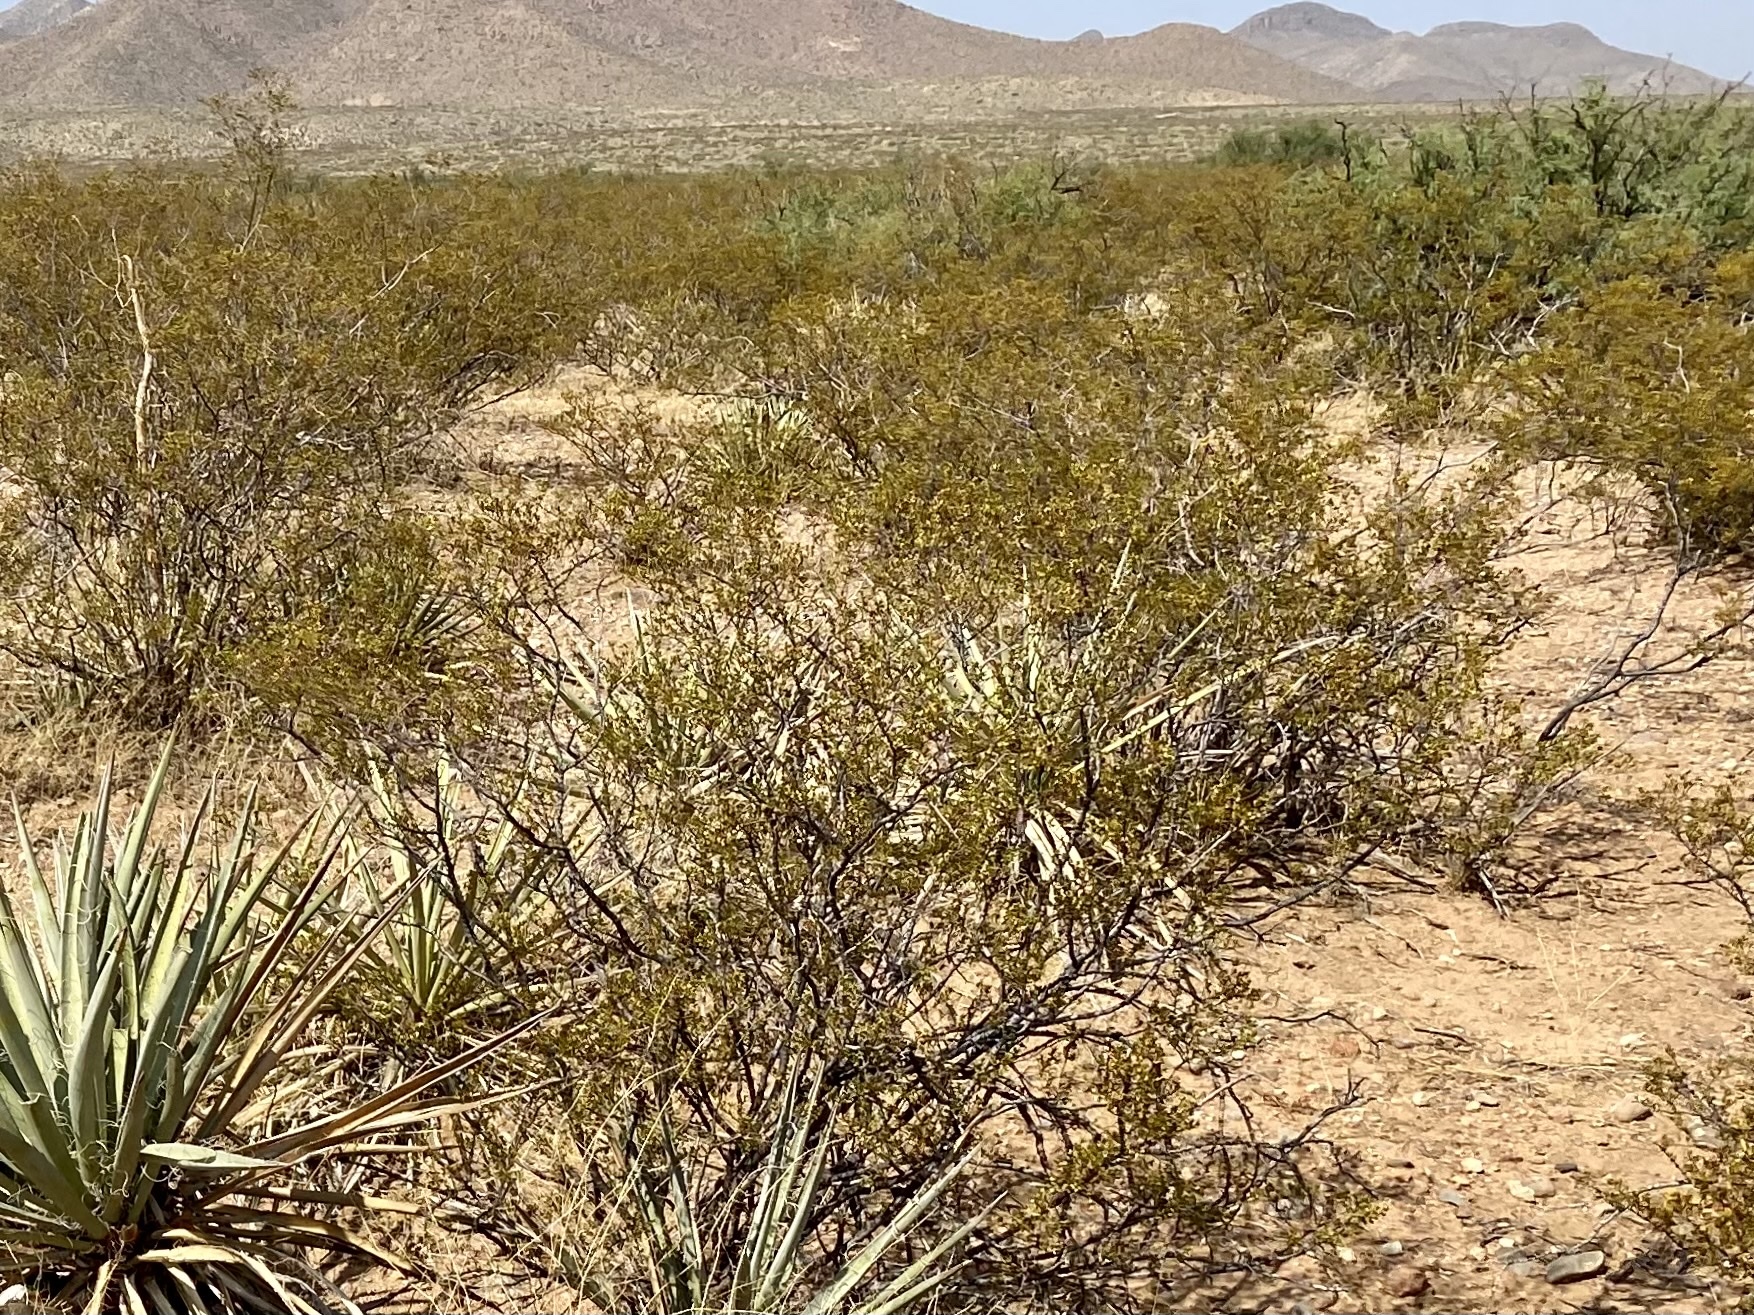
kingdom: Plantae
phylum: Tracheophyta
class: Magnoliopsida
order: Zygophyllales
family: Zygophyllaceae
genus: Larrea
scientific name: Larrea tridentata
